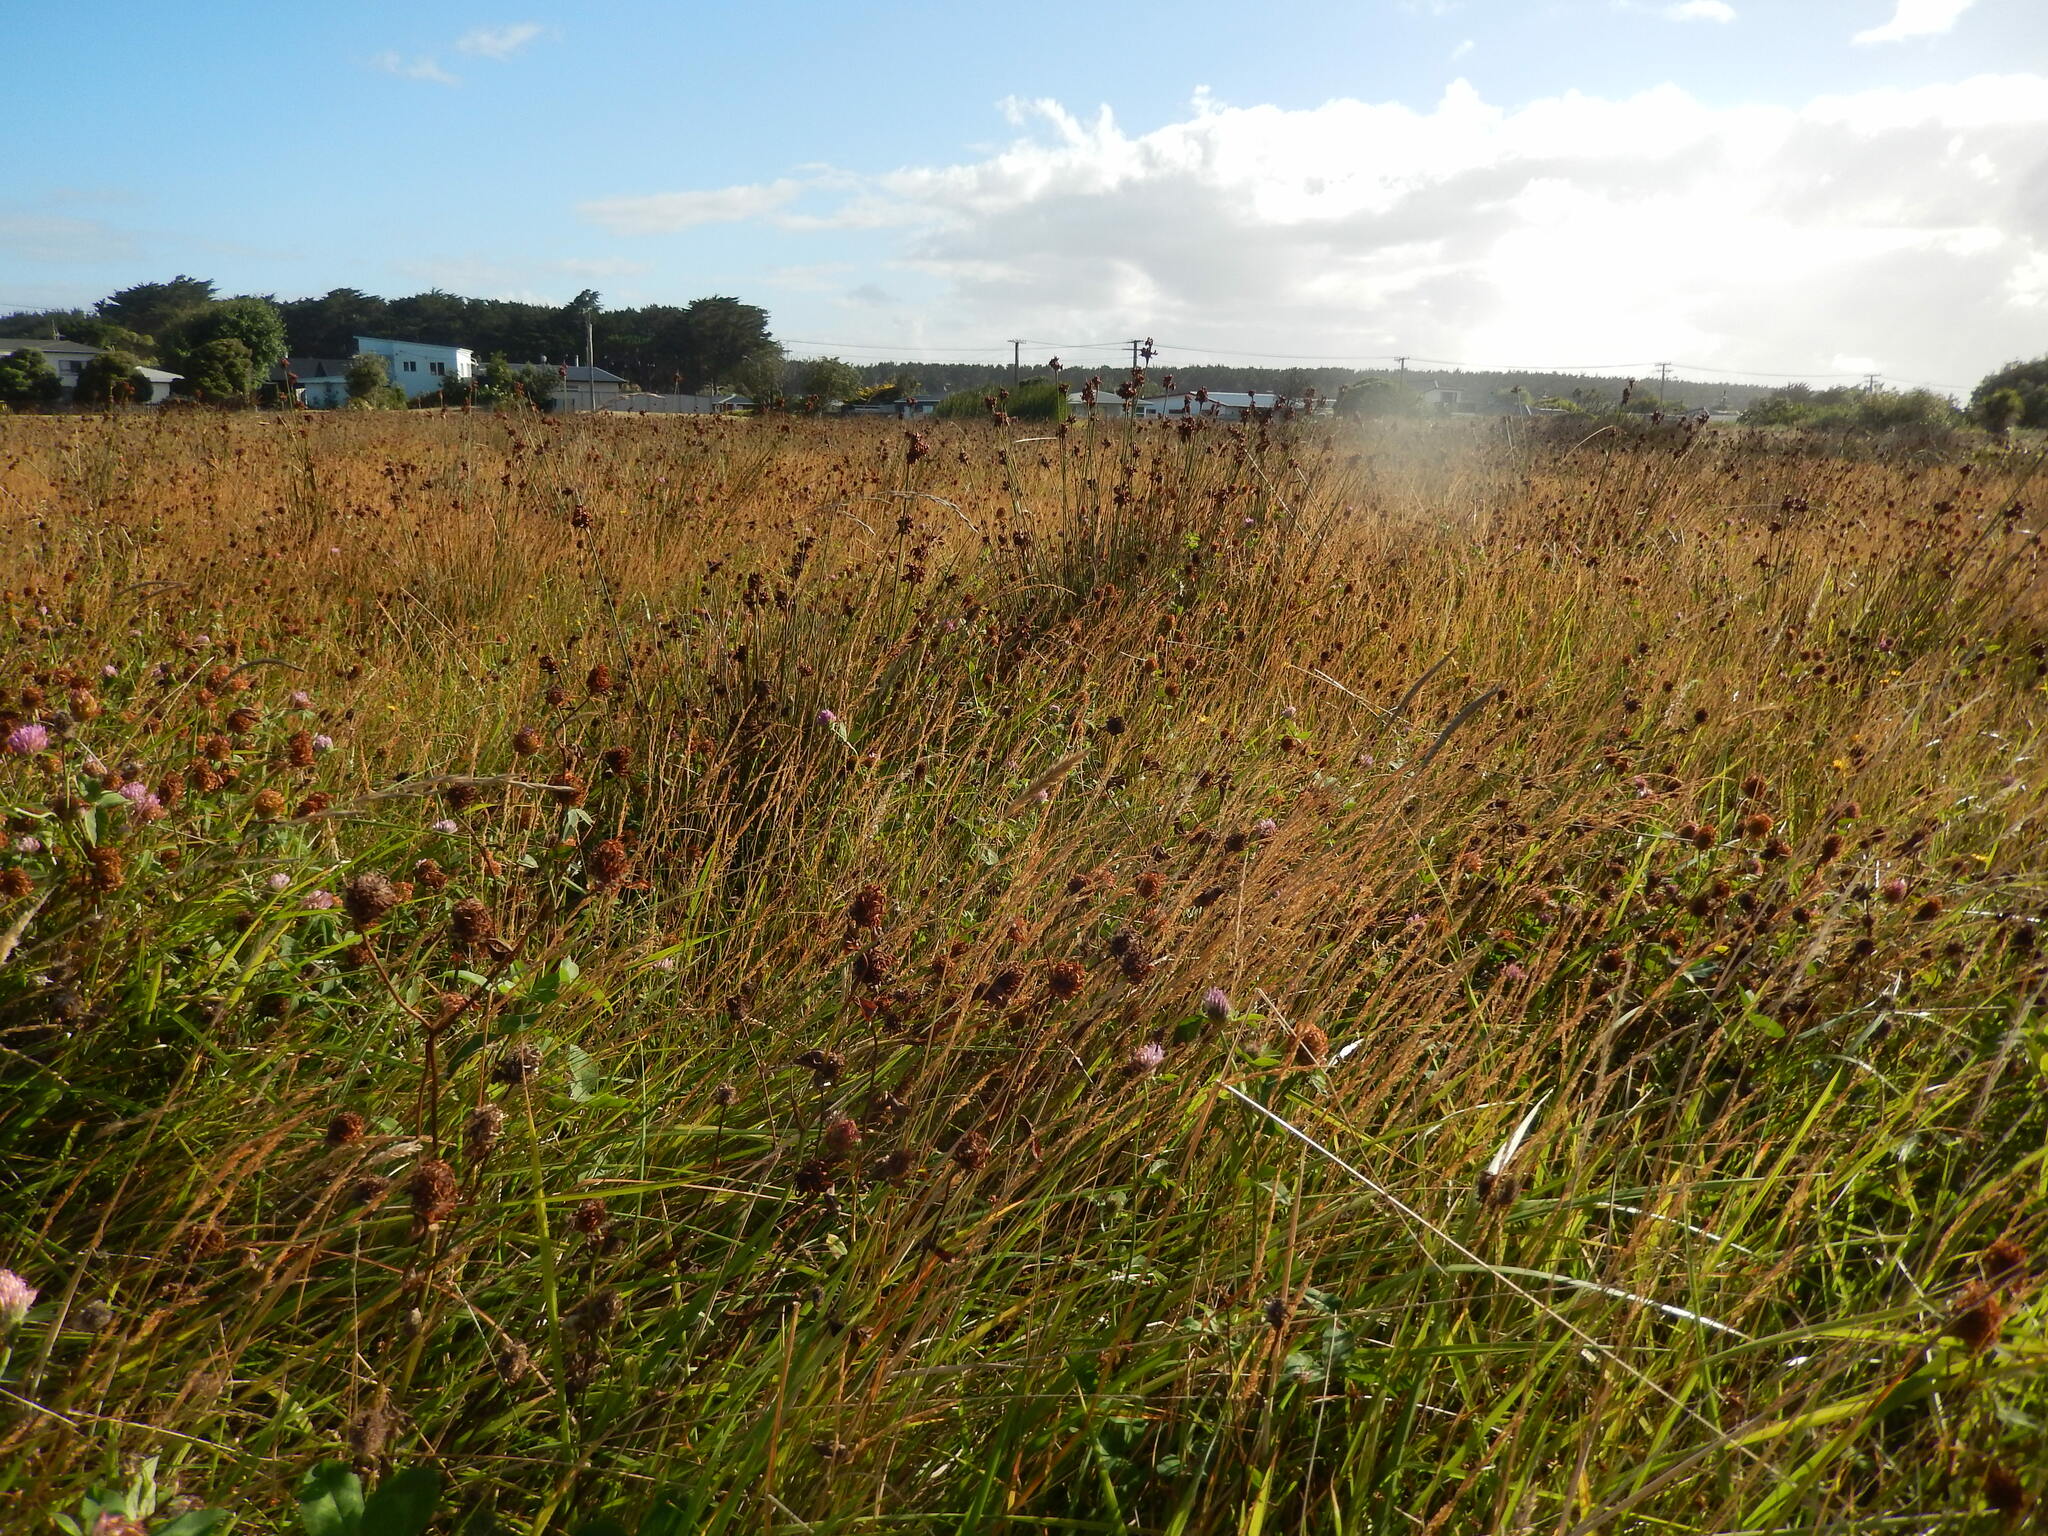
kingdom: Plantae
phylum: Tracheophyta
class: Liliopsida
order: Poales
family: Juncaceae
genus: Juncus
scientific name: Juncus acutus
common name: Sharp rush
